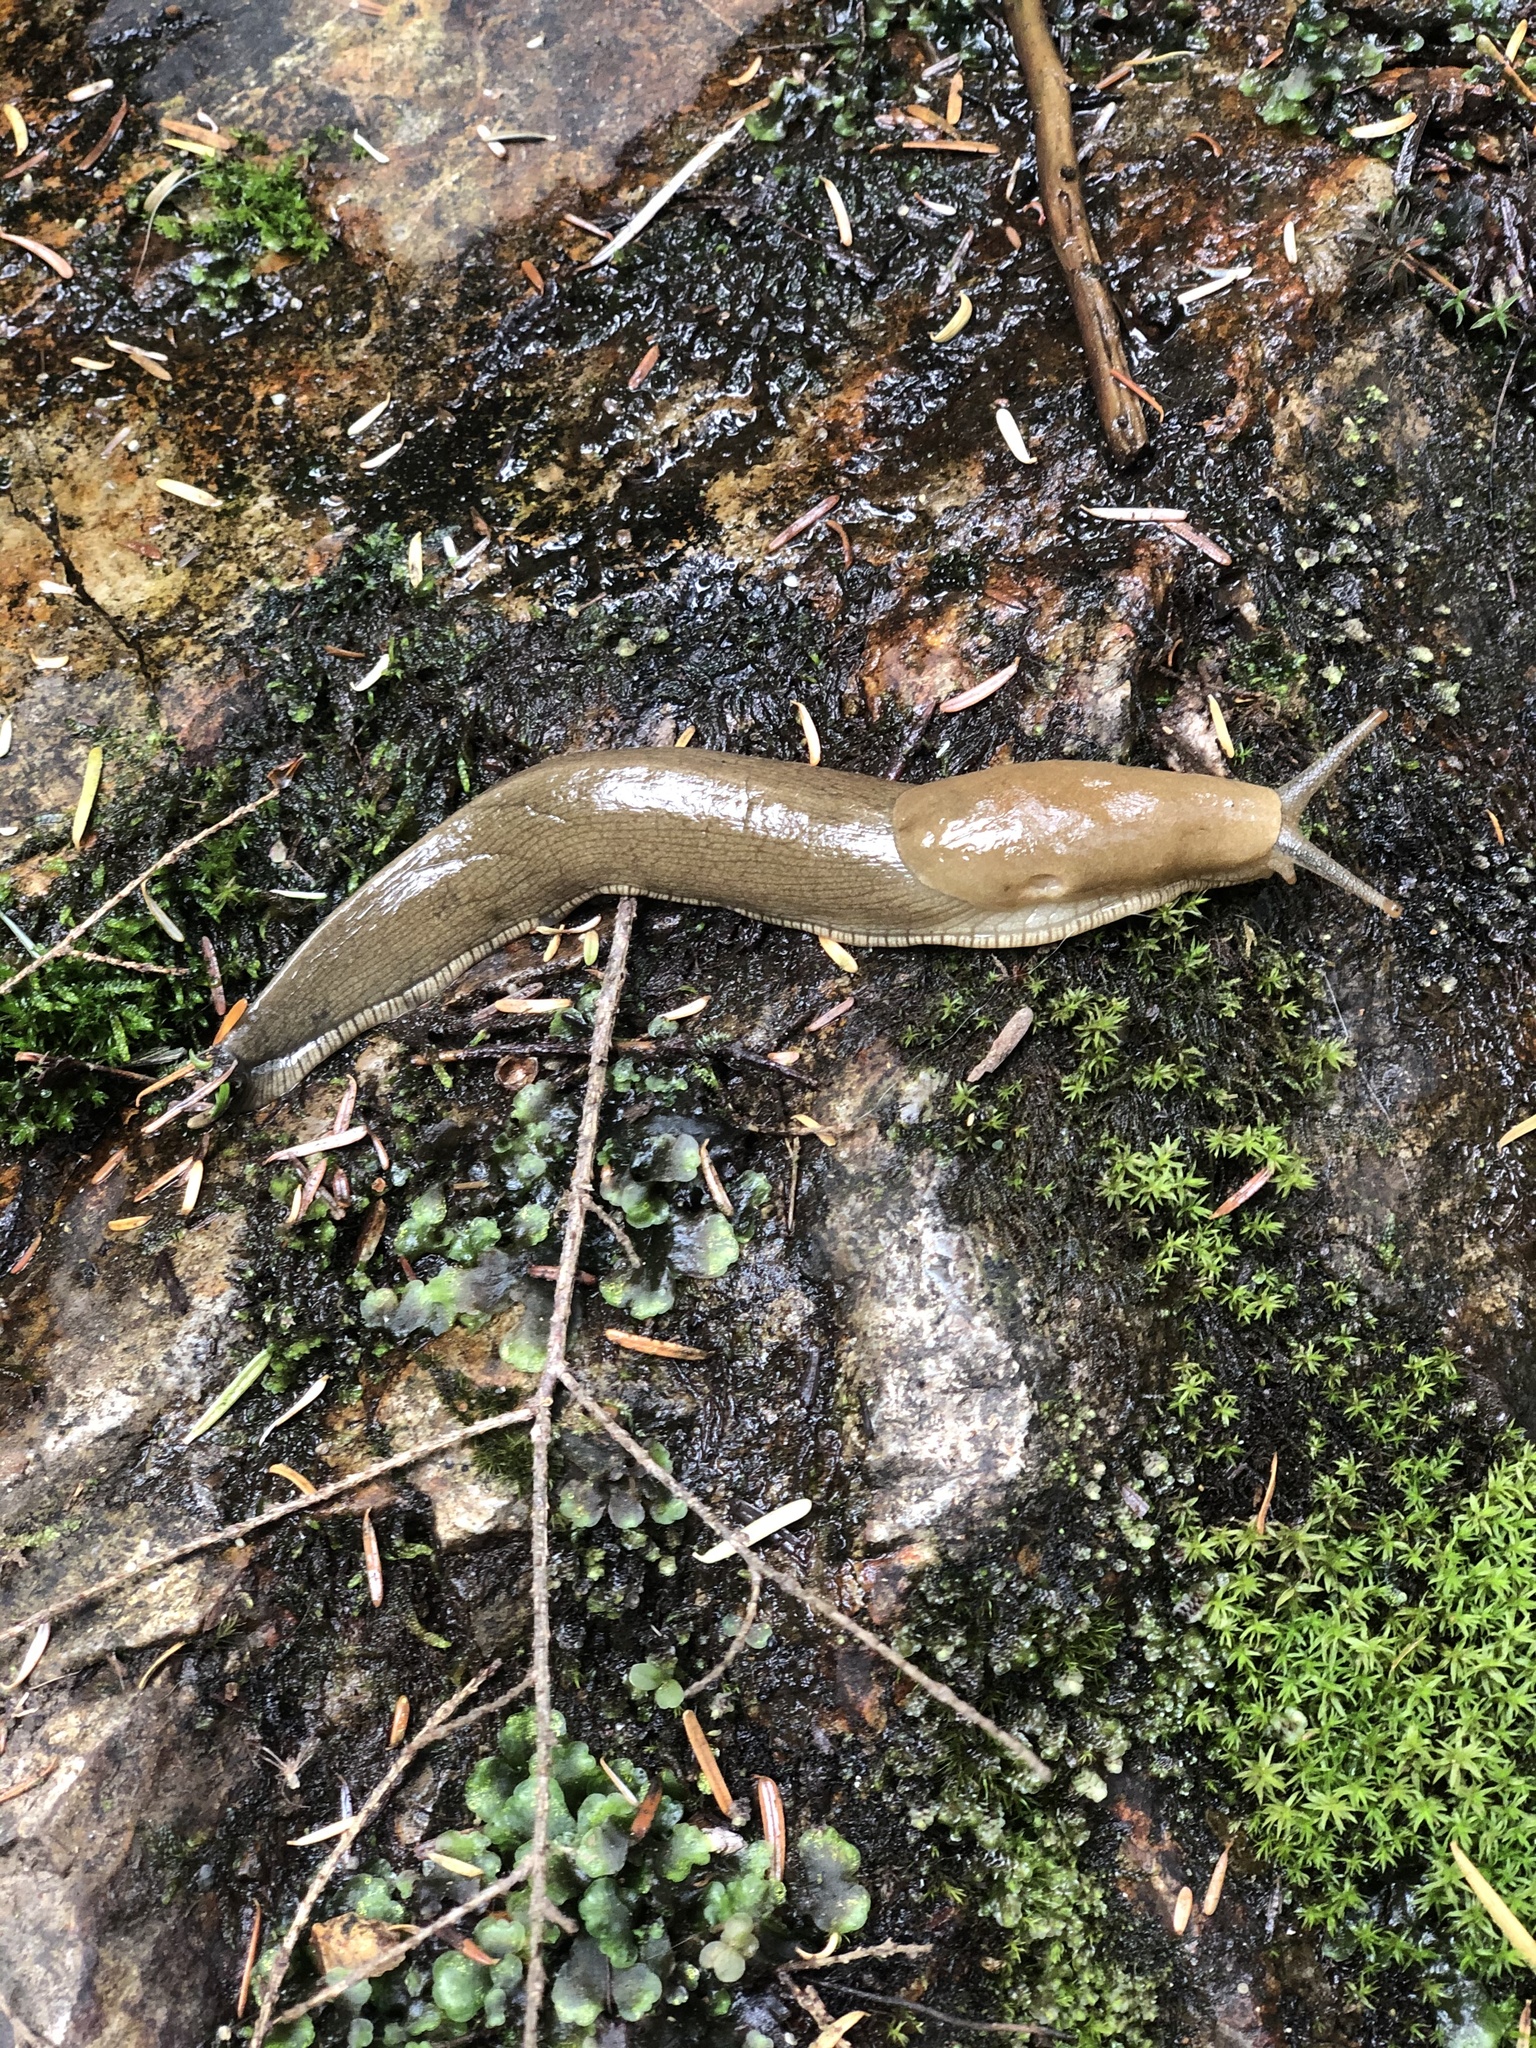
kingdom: Animalia
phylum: Mollusca
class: Gastropoda
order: Stylommatophora
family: Ariolimacidae
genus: Ariolimax
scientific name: Ariolimax columbianus
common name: Pacific banana slug
